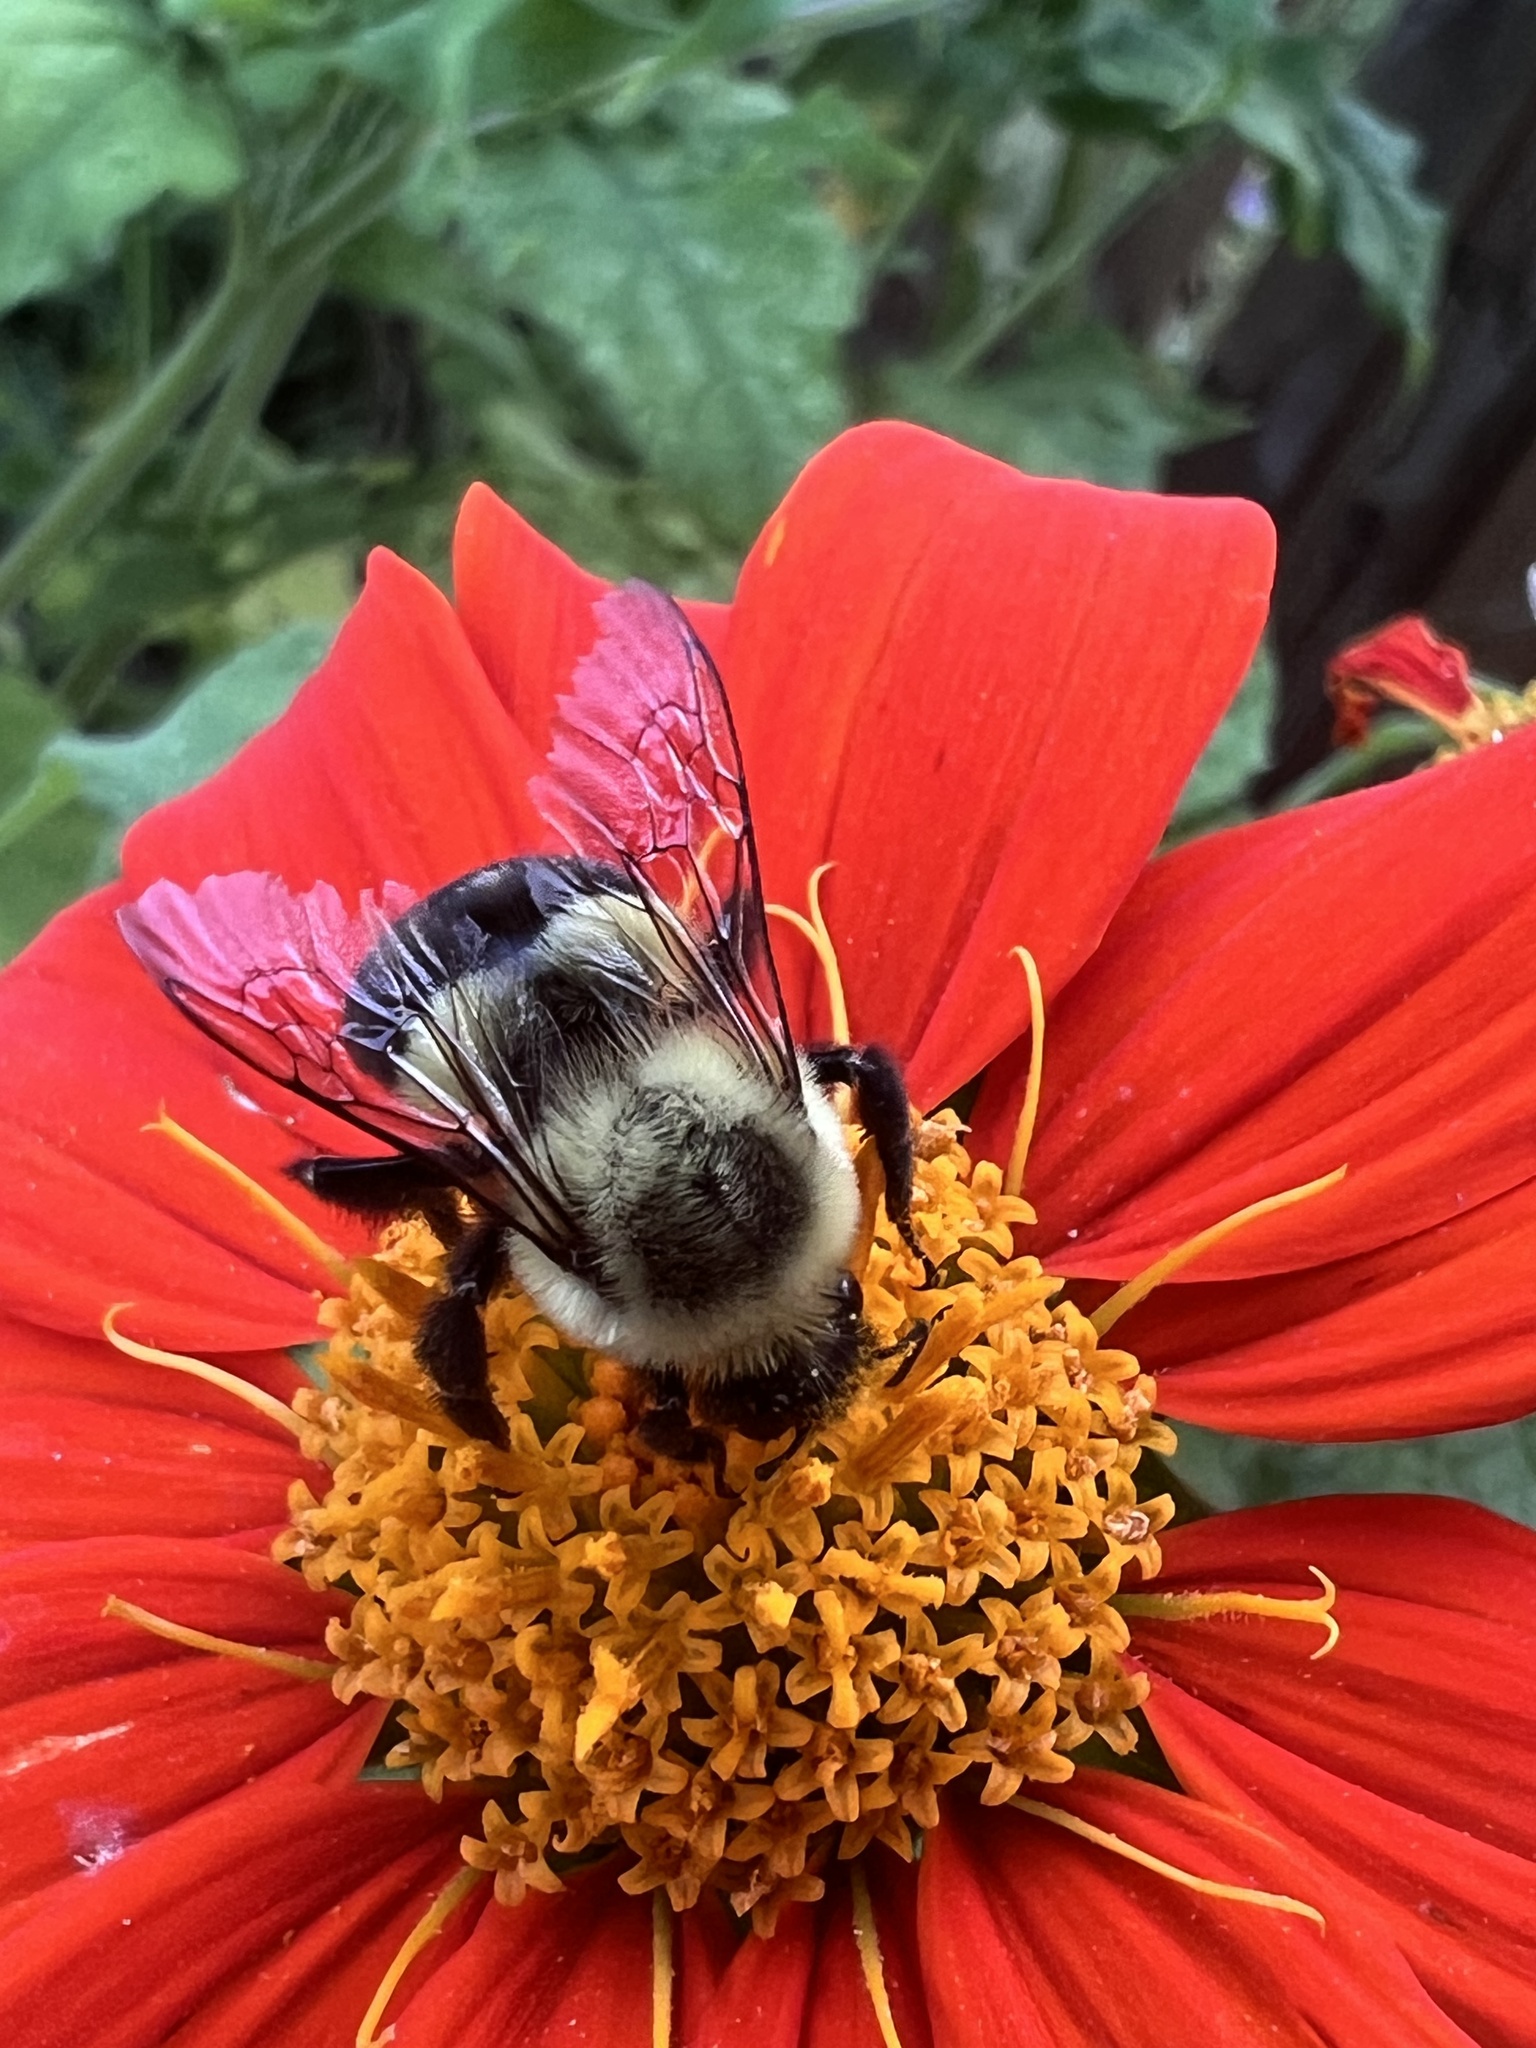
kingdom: Animalia
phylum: Arthropoda
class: Insecta
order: Hymenoptera
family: Apidae
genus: Bombus
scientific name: Bombus impatiens
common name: Common eastern bumble bee
